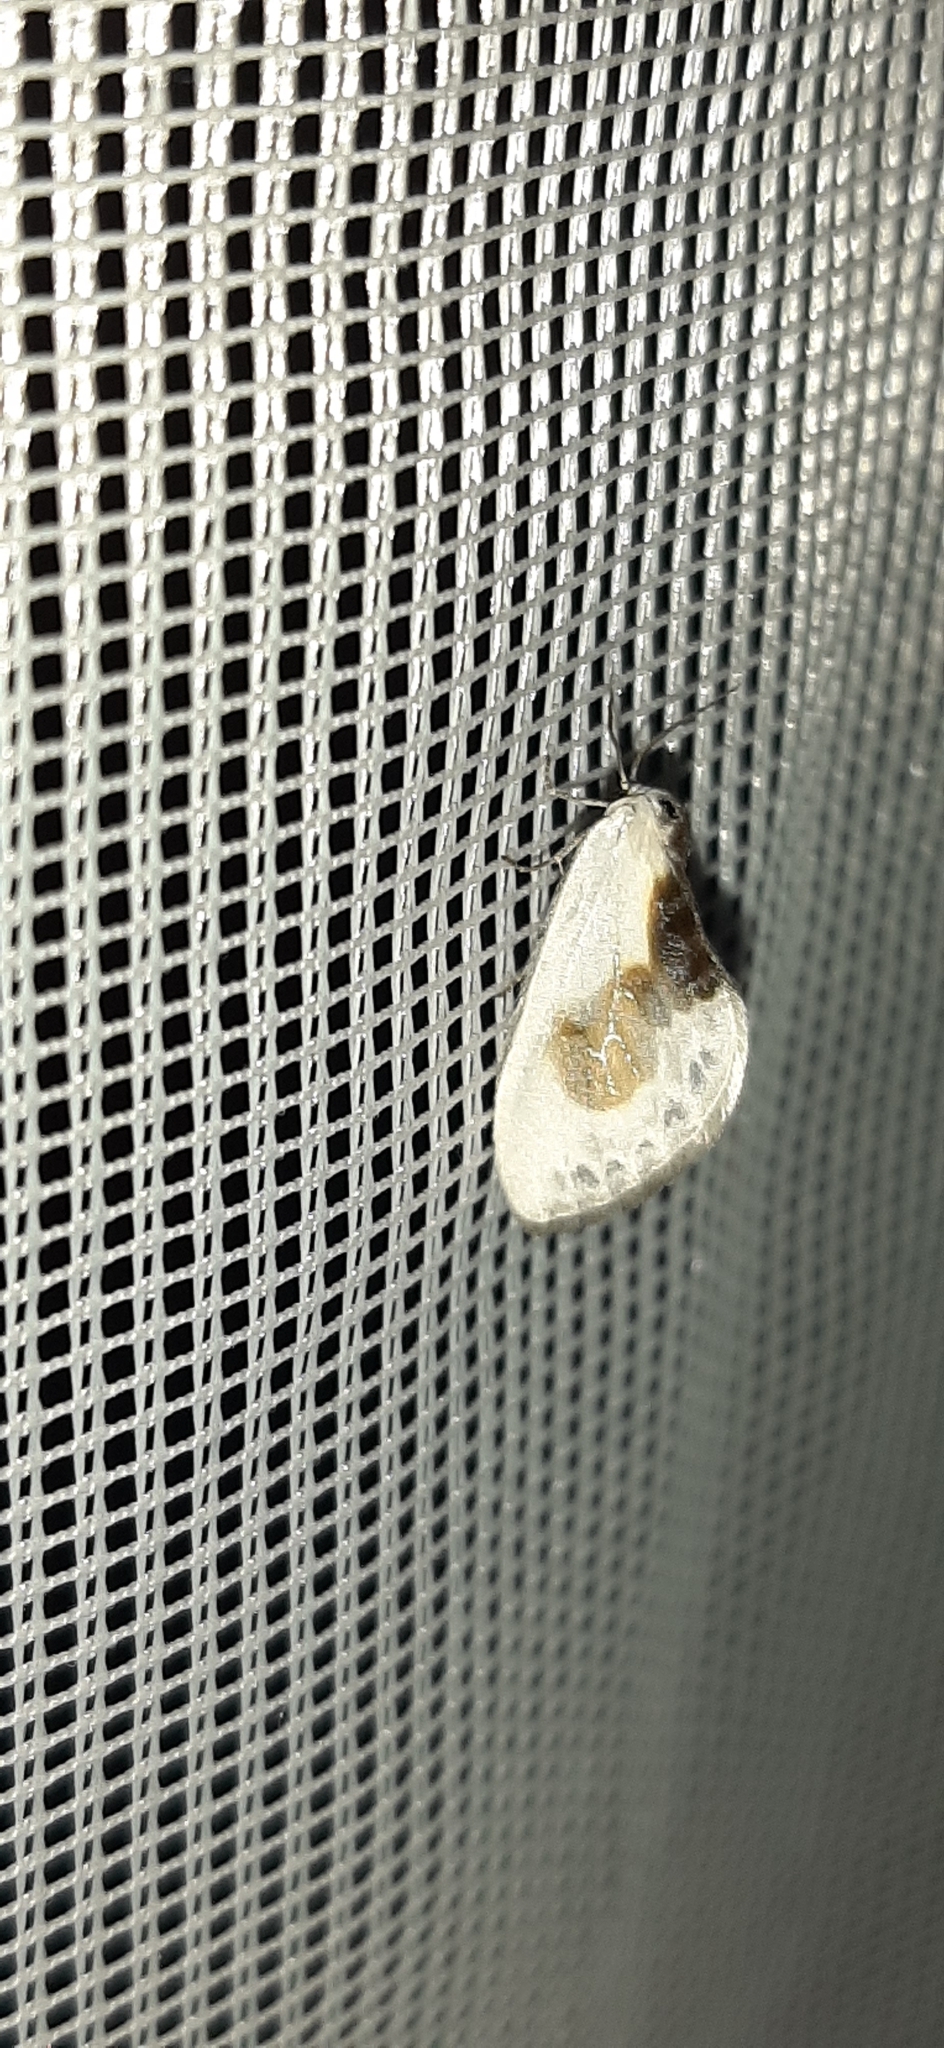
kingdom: Animalia
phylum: Arthropoda
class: Insecta
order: Lepidoptera
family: Drepanidae
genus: Cilix
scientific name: Cilix glaucata
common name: Chinese character
